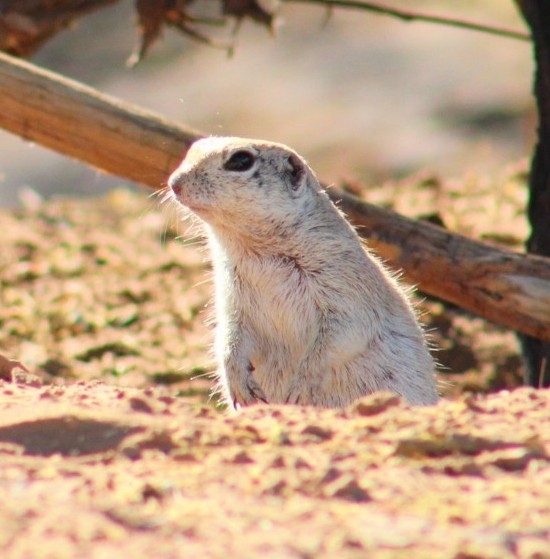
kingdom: Animalia
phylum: Chordata
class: Mammalia
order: Rodentia
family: Sciuridae
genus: Xerospermophilus
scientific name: Xerospermophilus tereticaudus
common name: Round-tailed ground squirrel
